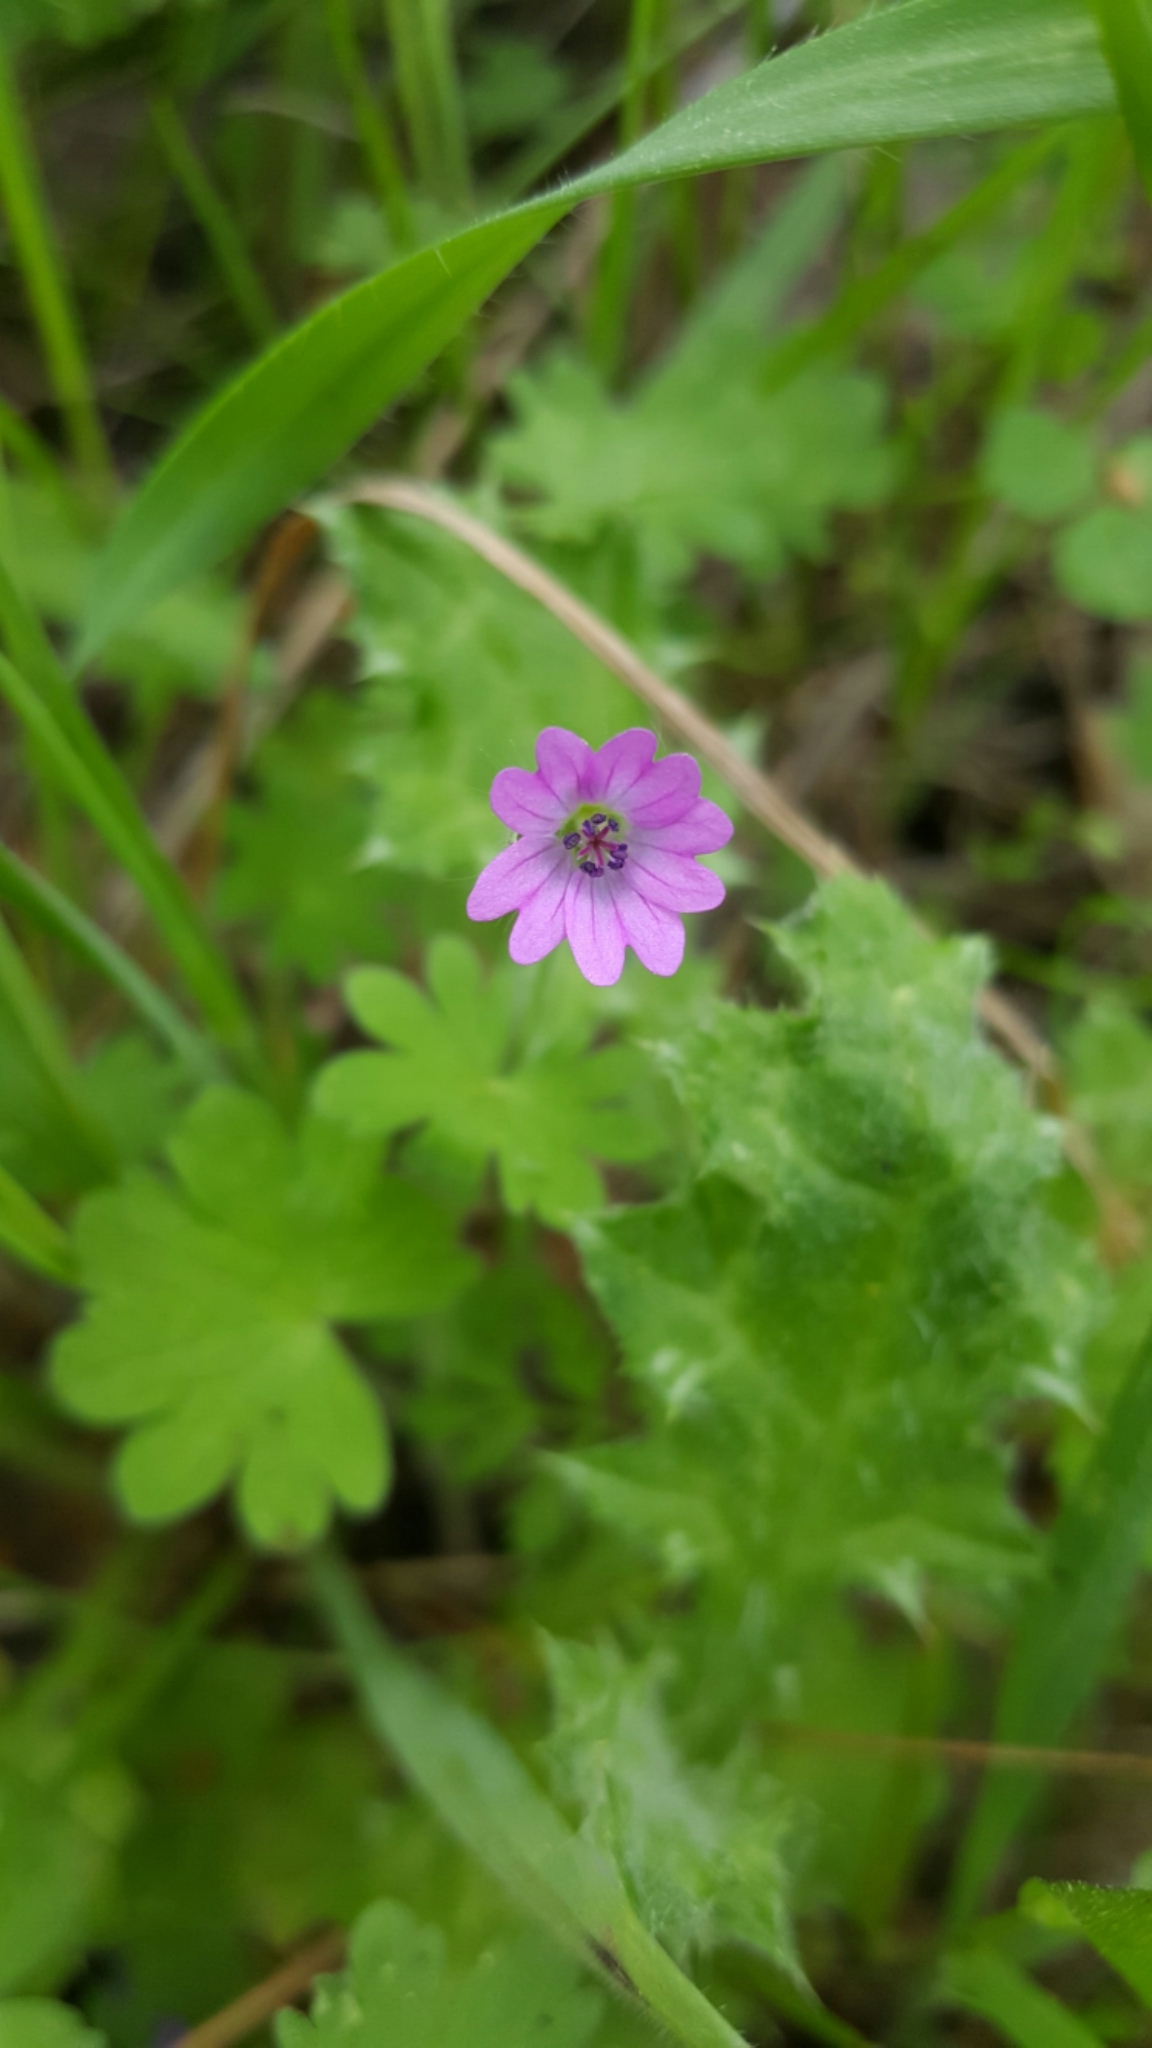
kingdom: Plantae
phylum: Tracheophyta
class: Magnoliopsida
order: Geraniales
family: Geraniaceae
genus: Geranium
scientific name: Geranium molle
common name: Dove's-foot crane's-bill
